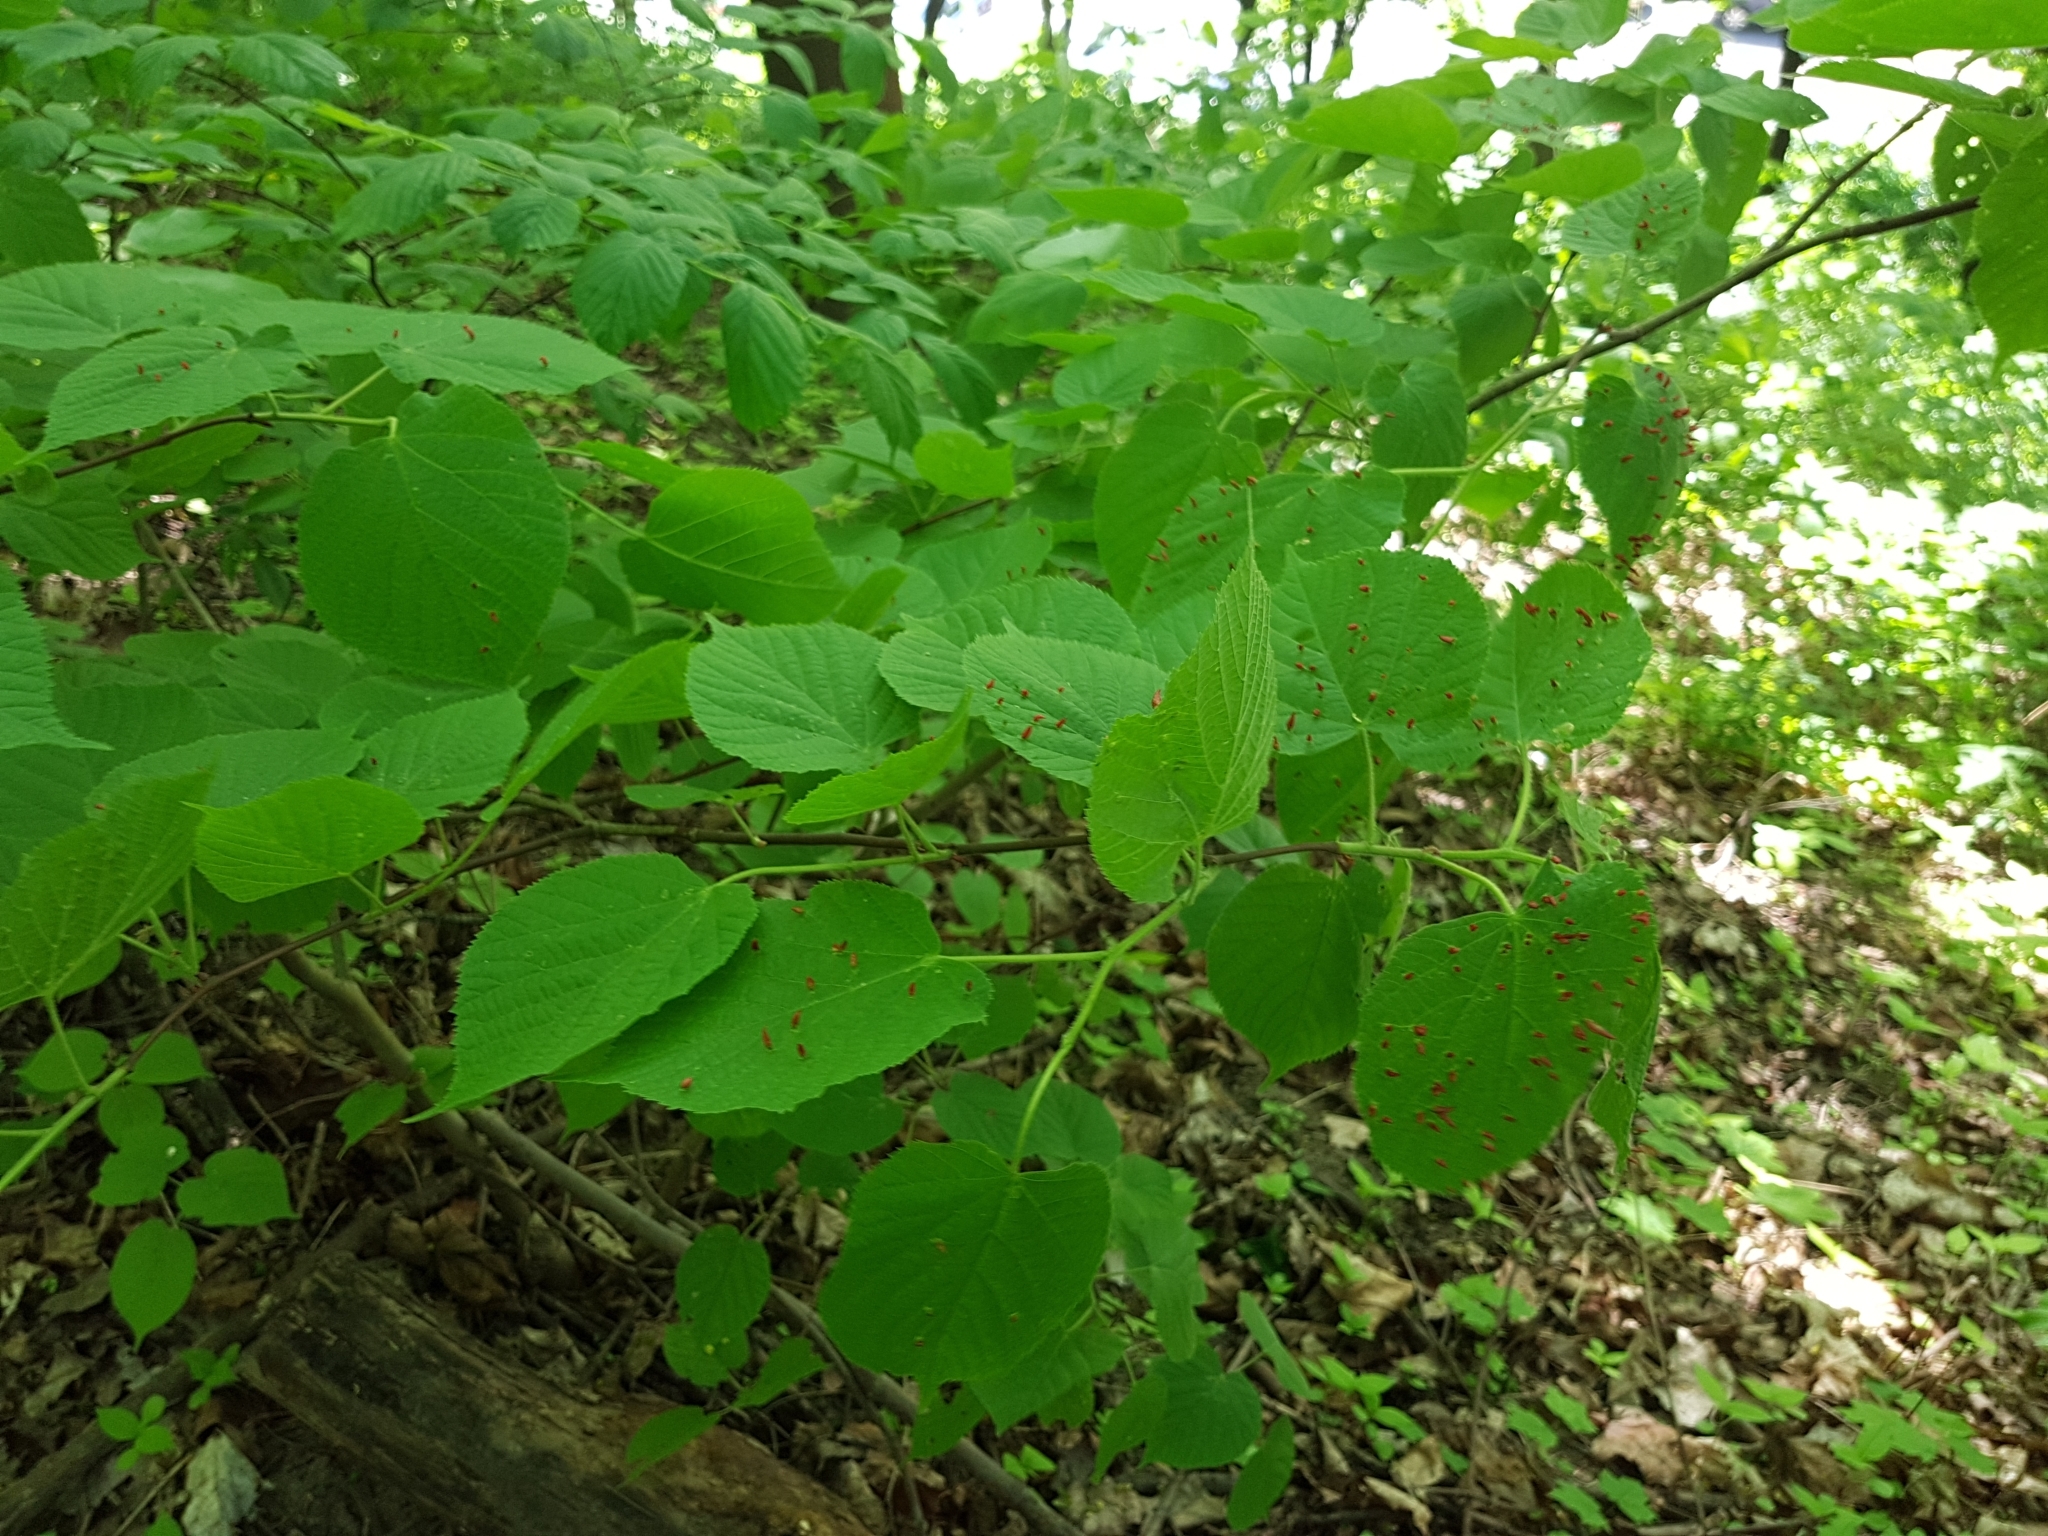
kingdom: Animalia
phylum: Arthropoda
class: Arachnida
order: Trombidiformes
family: Eriophyidae
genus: Eriophyes
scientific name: Eriophyes tiliae
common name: Red nail gall mite
